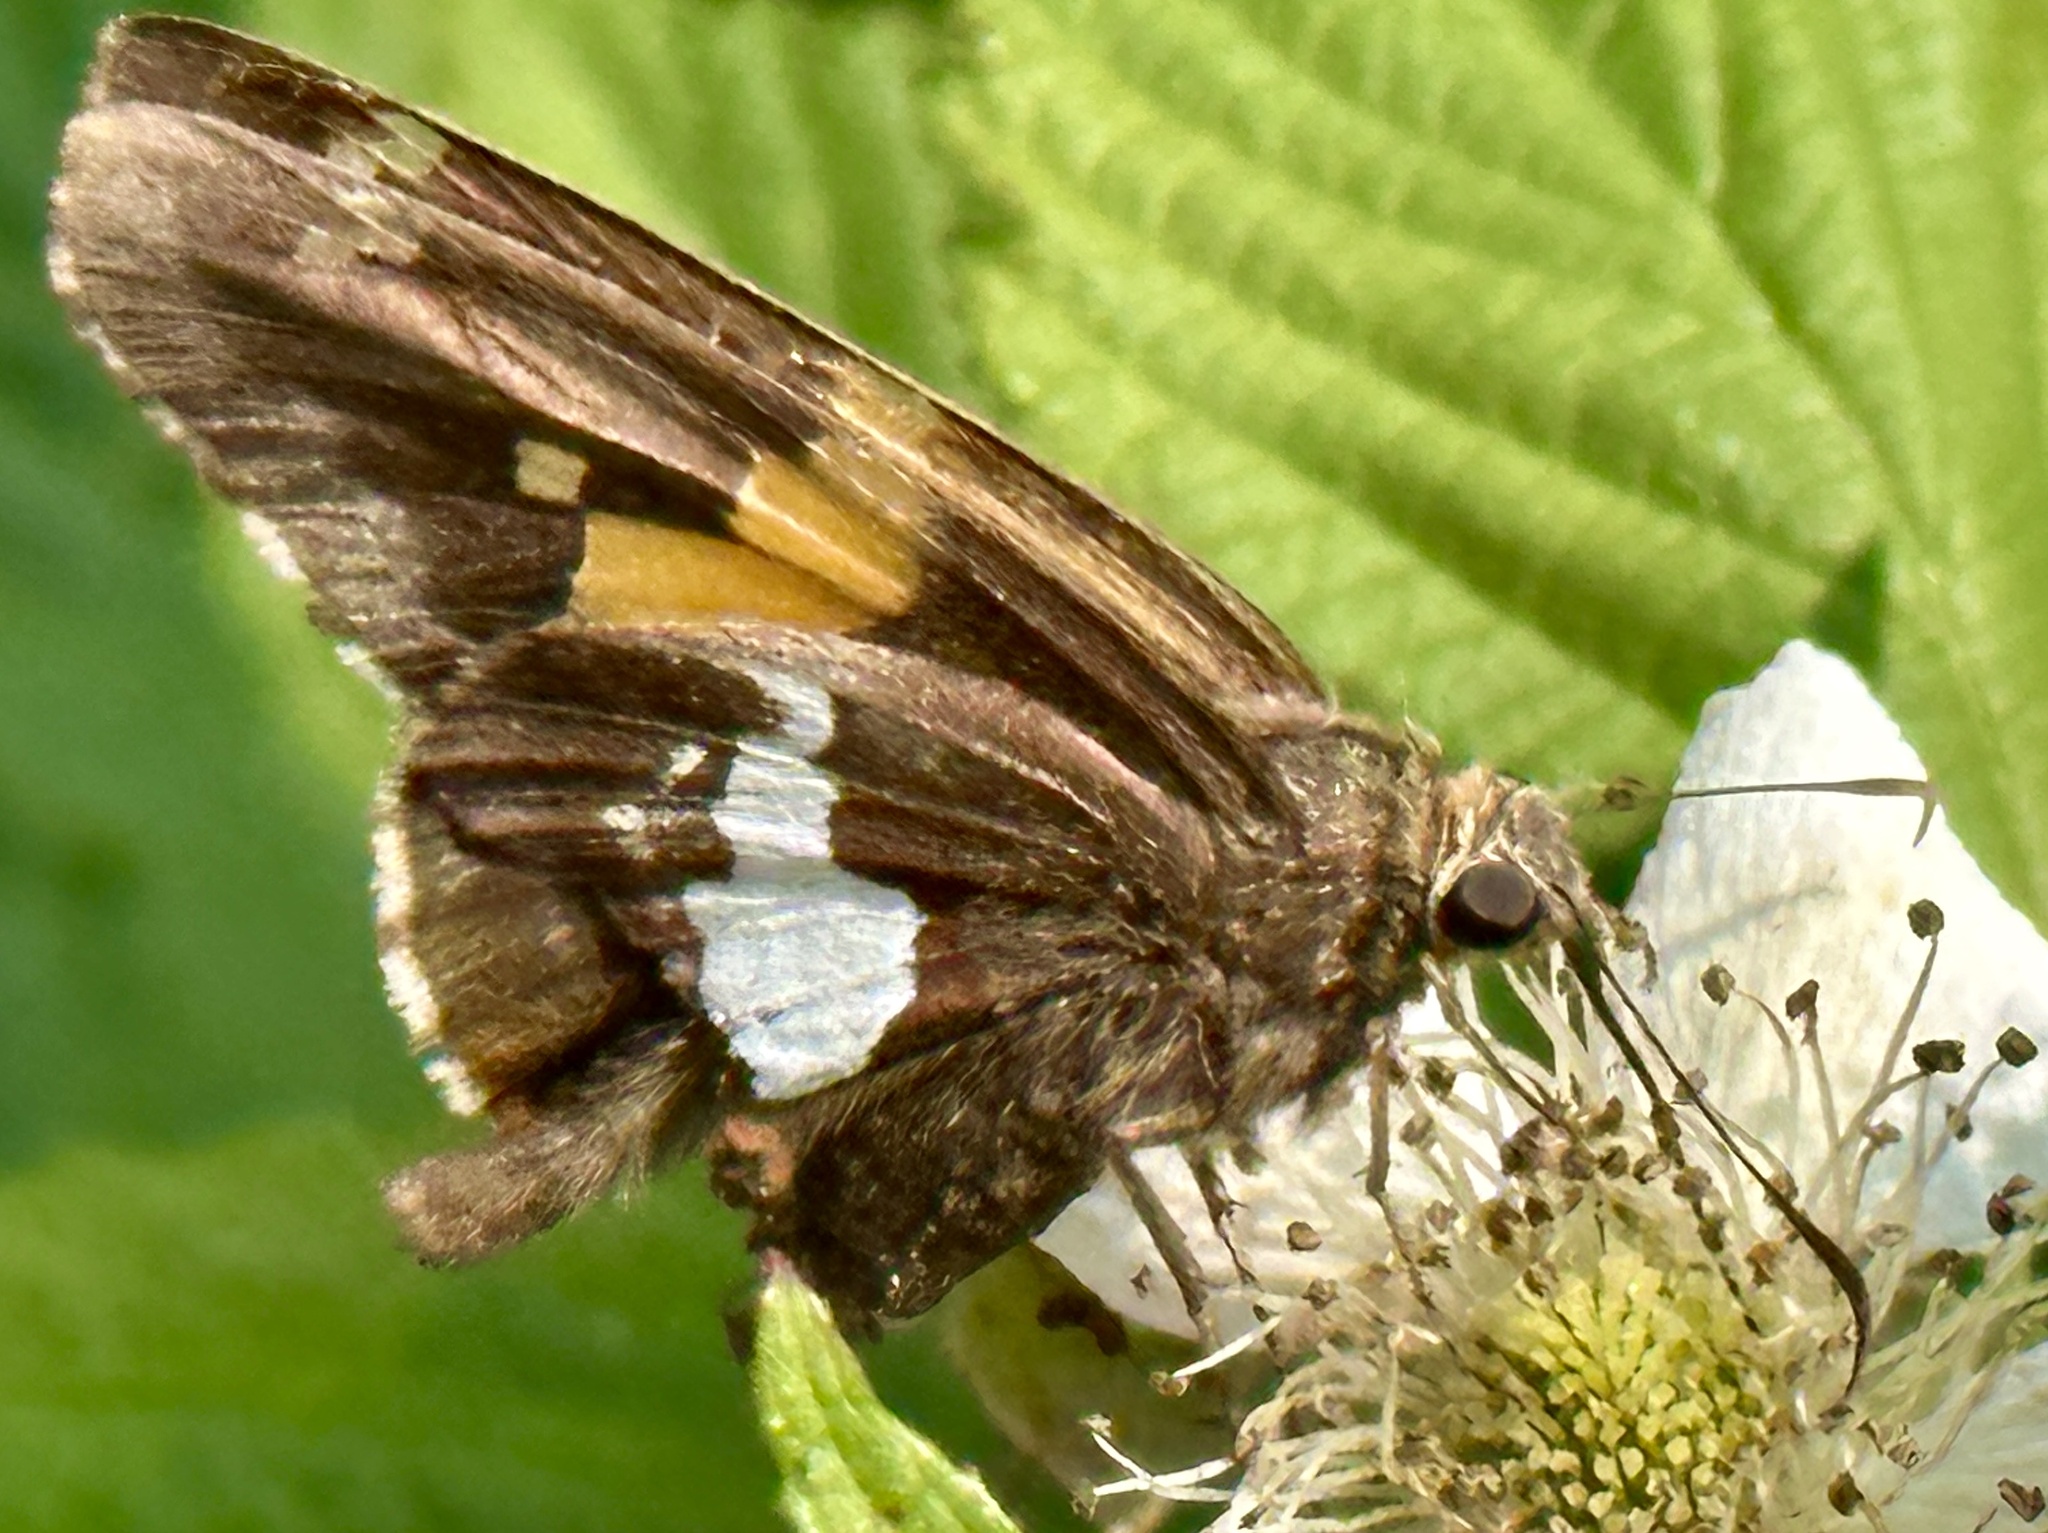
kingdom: Animalia
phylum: Arthropoda
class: Insecta
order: Lepidoptera
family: Hesperiidae
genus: Epargyreus
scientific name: Epargyreus clarus
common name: Silver-spotted skipper
